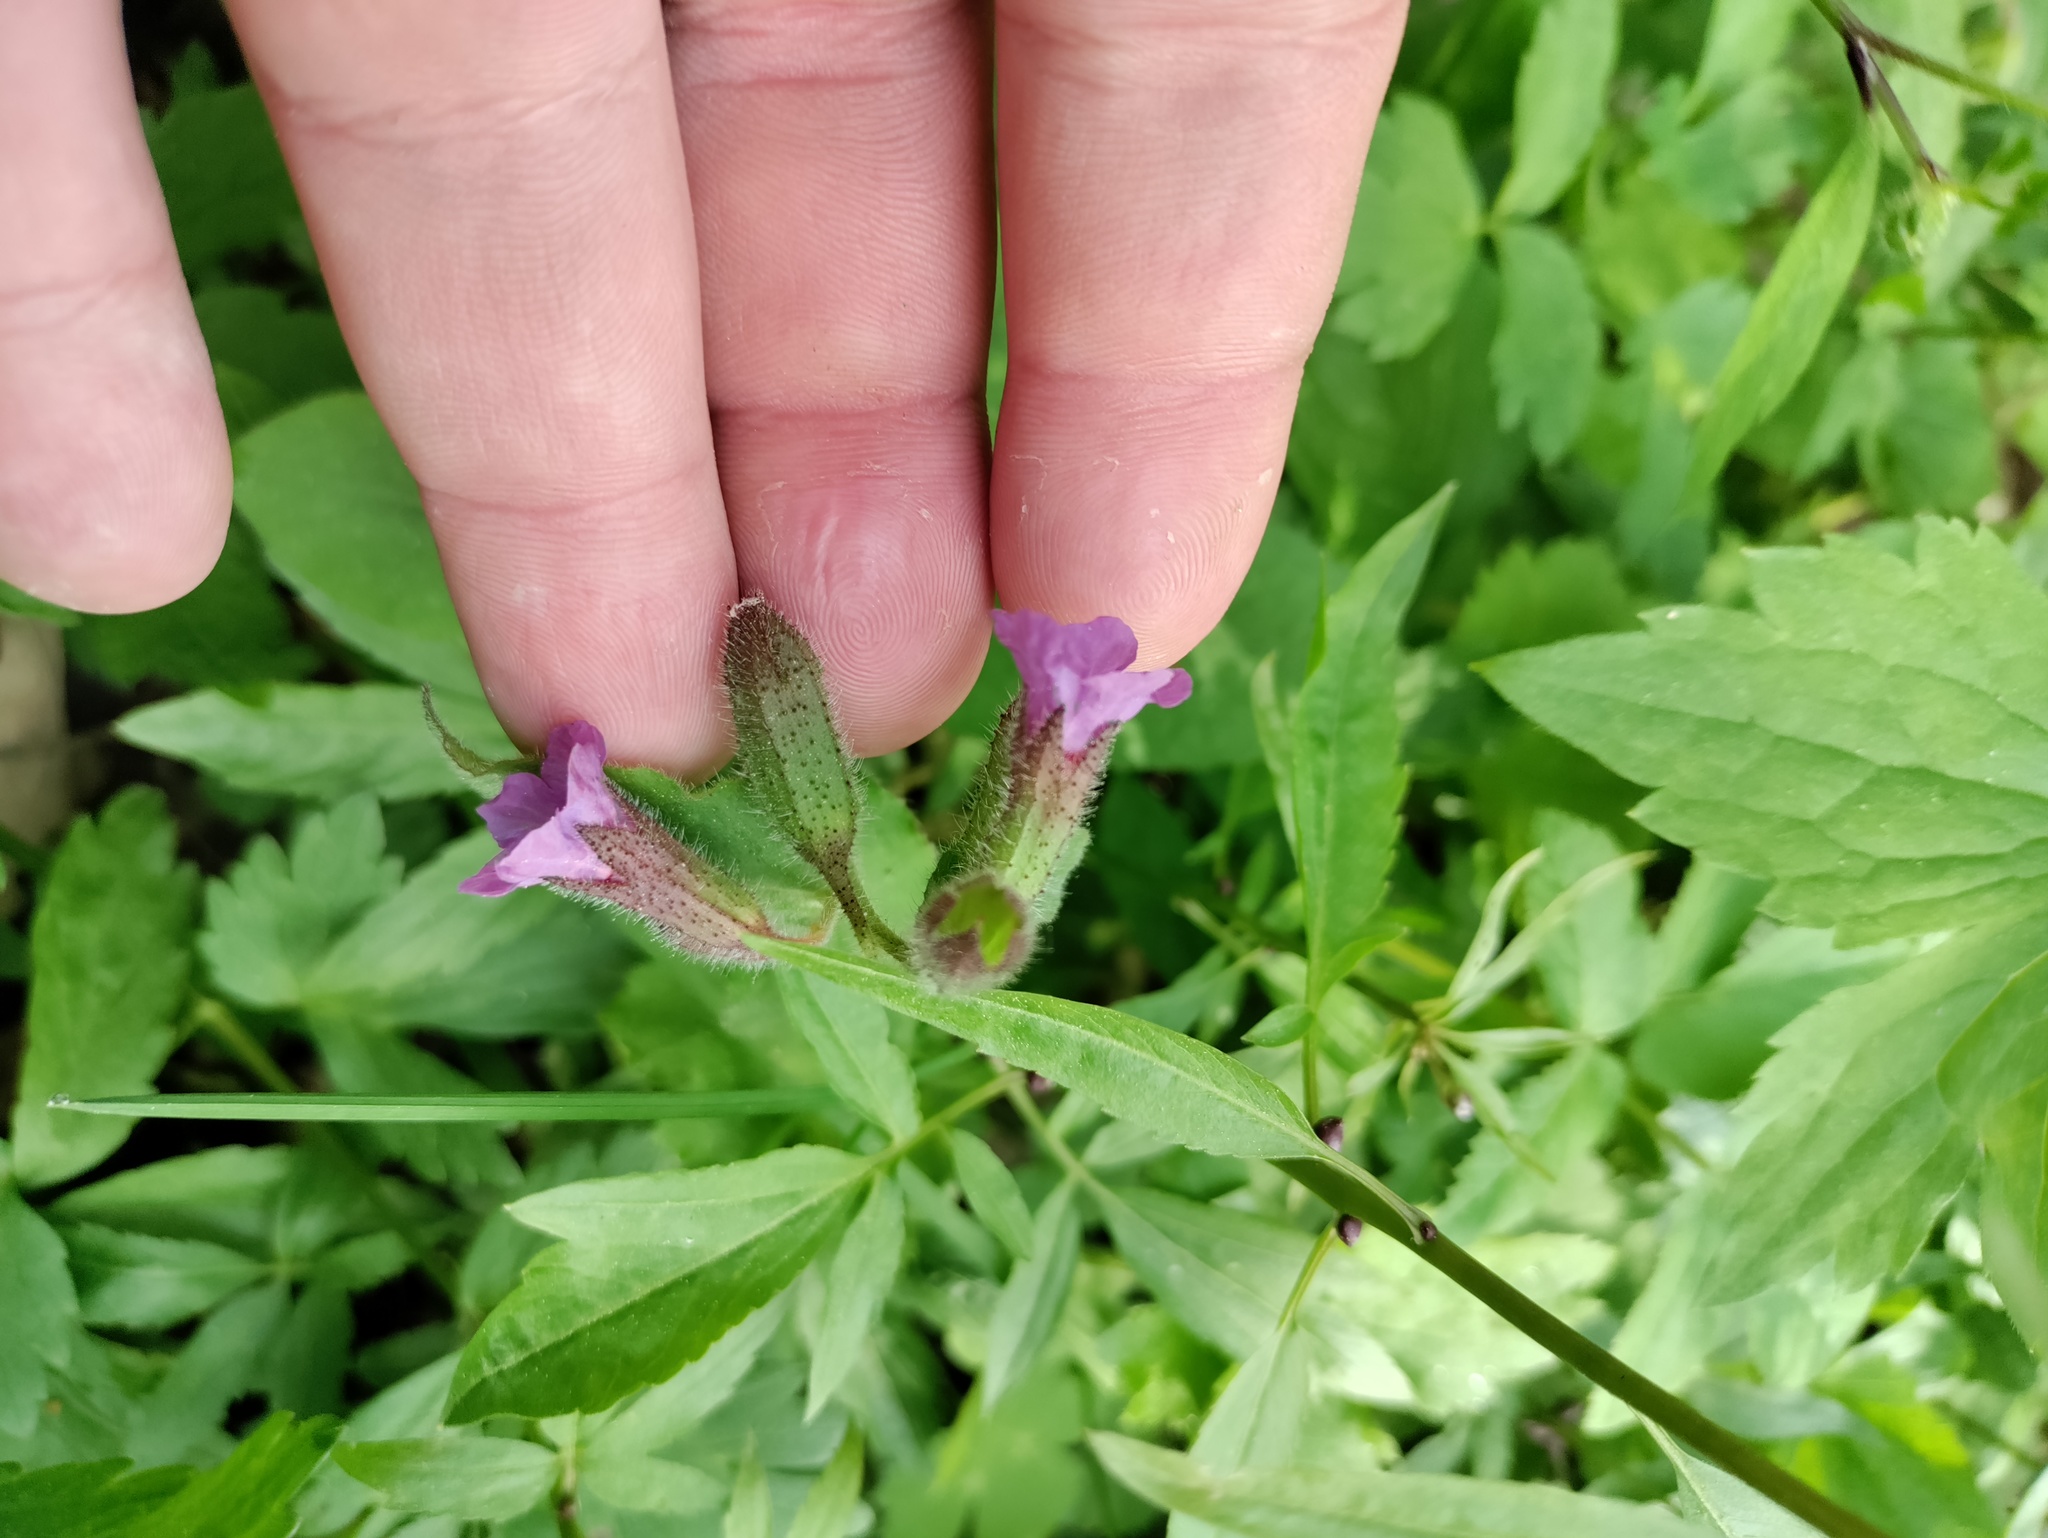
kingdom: Plantae
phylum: Tracheophyta
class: Magnoliopsida
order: Boraginales
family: Boraginaceae
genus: Pulmonaria
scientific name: Pulmonaria officinalis
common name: Lungwort
